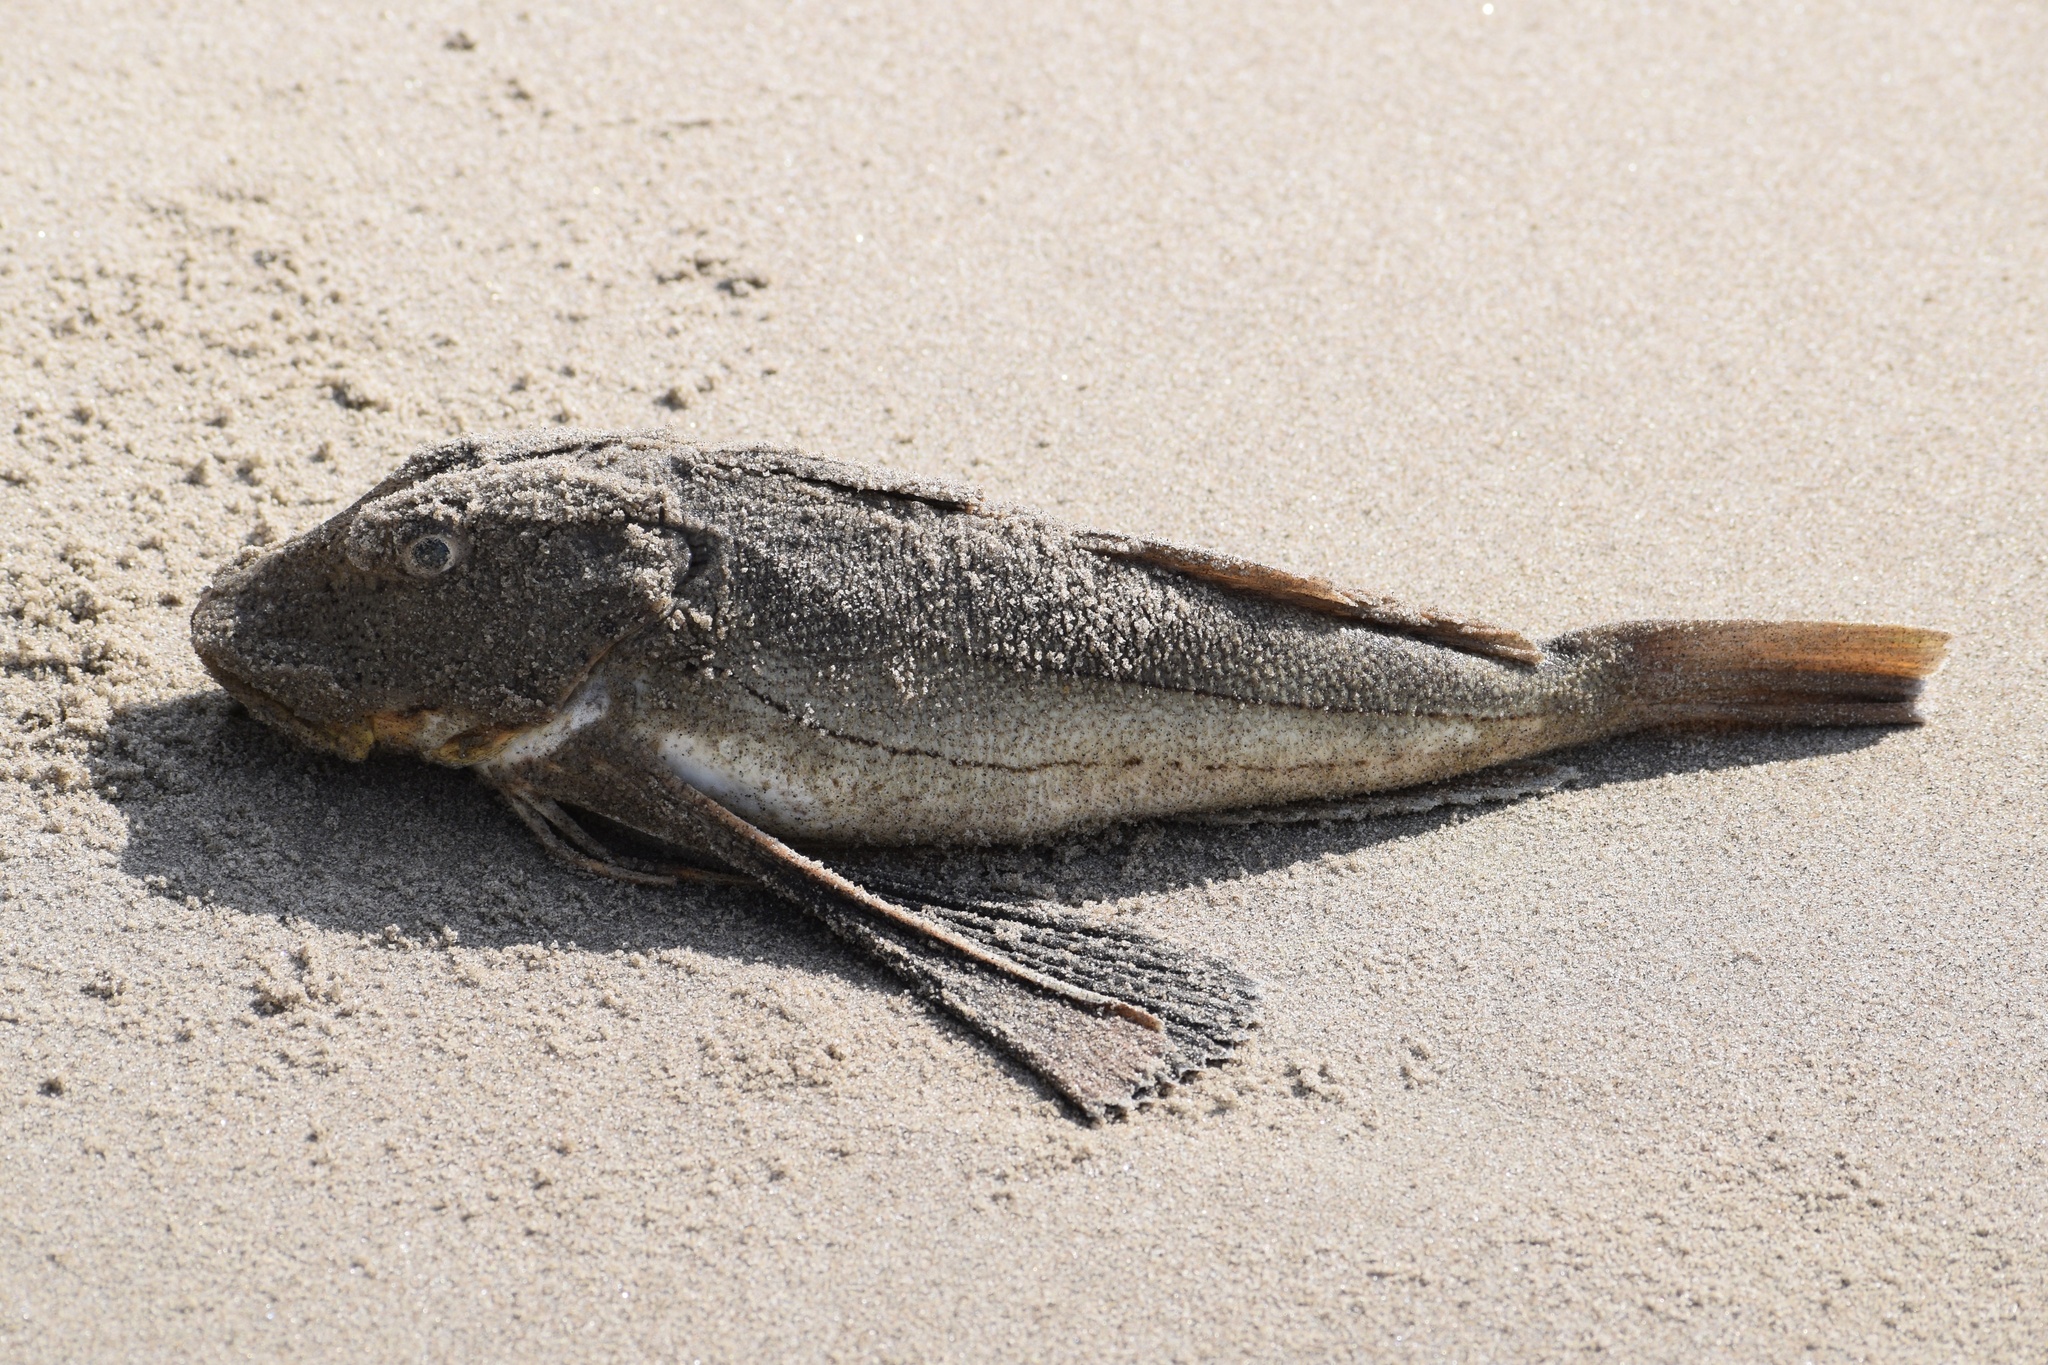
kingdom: Animalia
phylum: Chordata
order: Scorpaeniformes
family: Triglidae
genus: Prionotus
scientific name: Prionotus evolans
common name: Striped searobin
